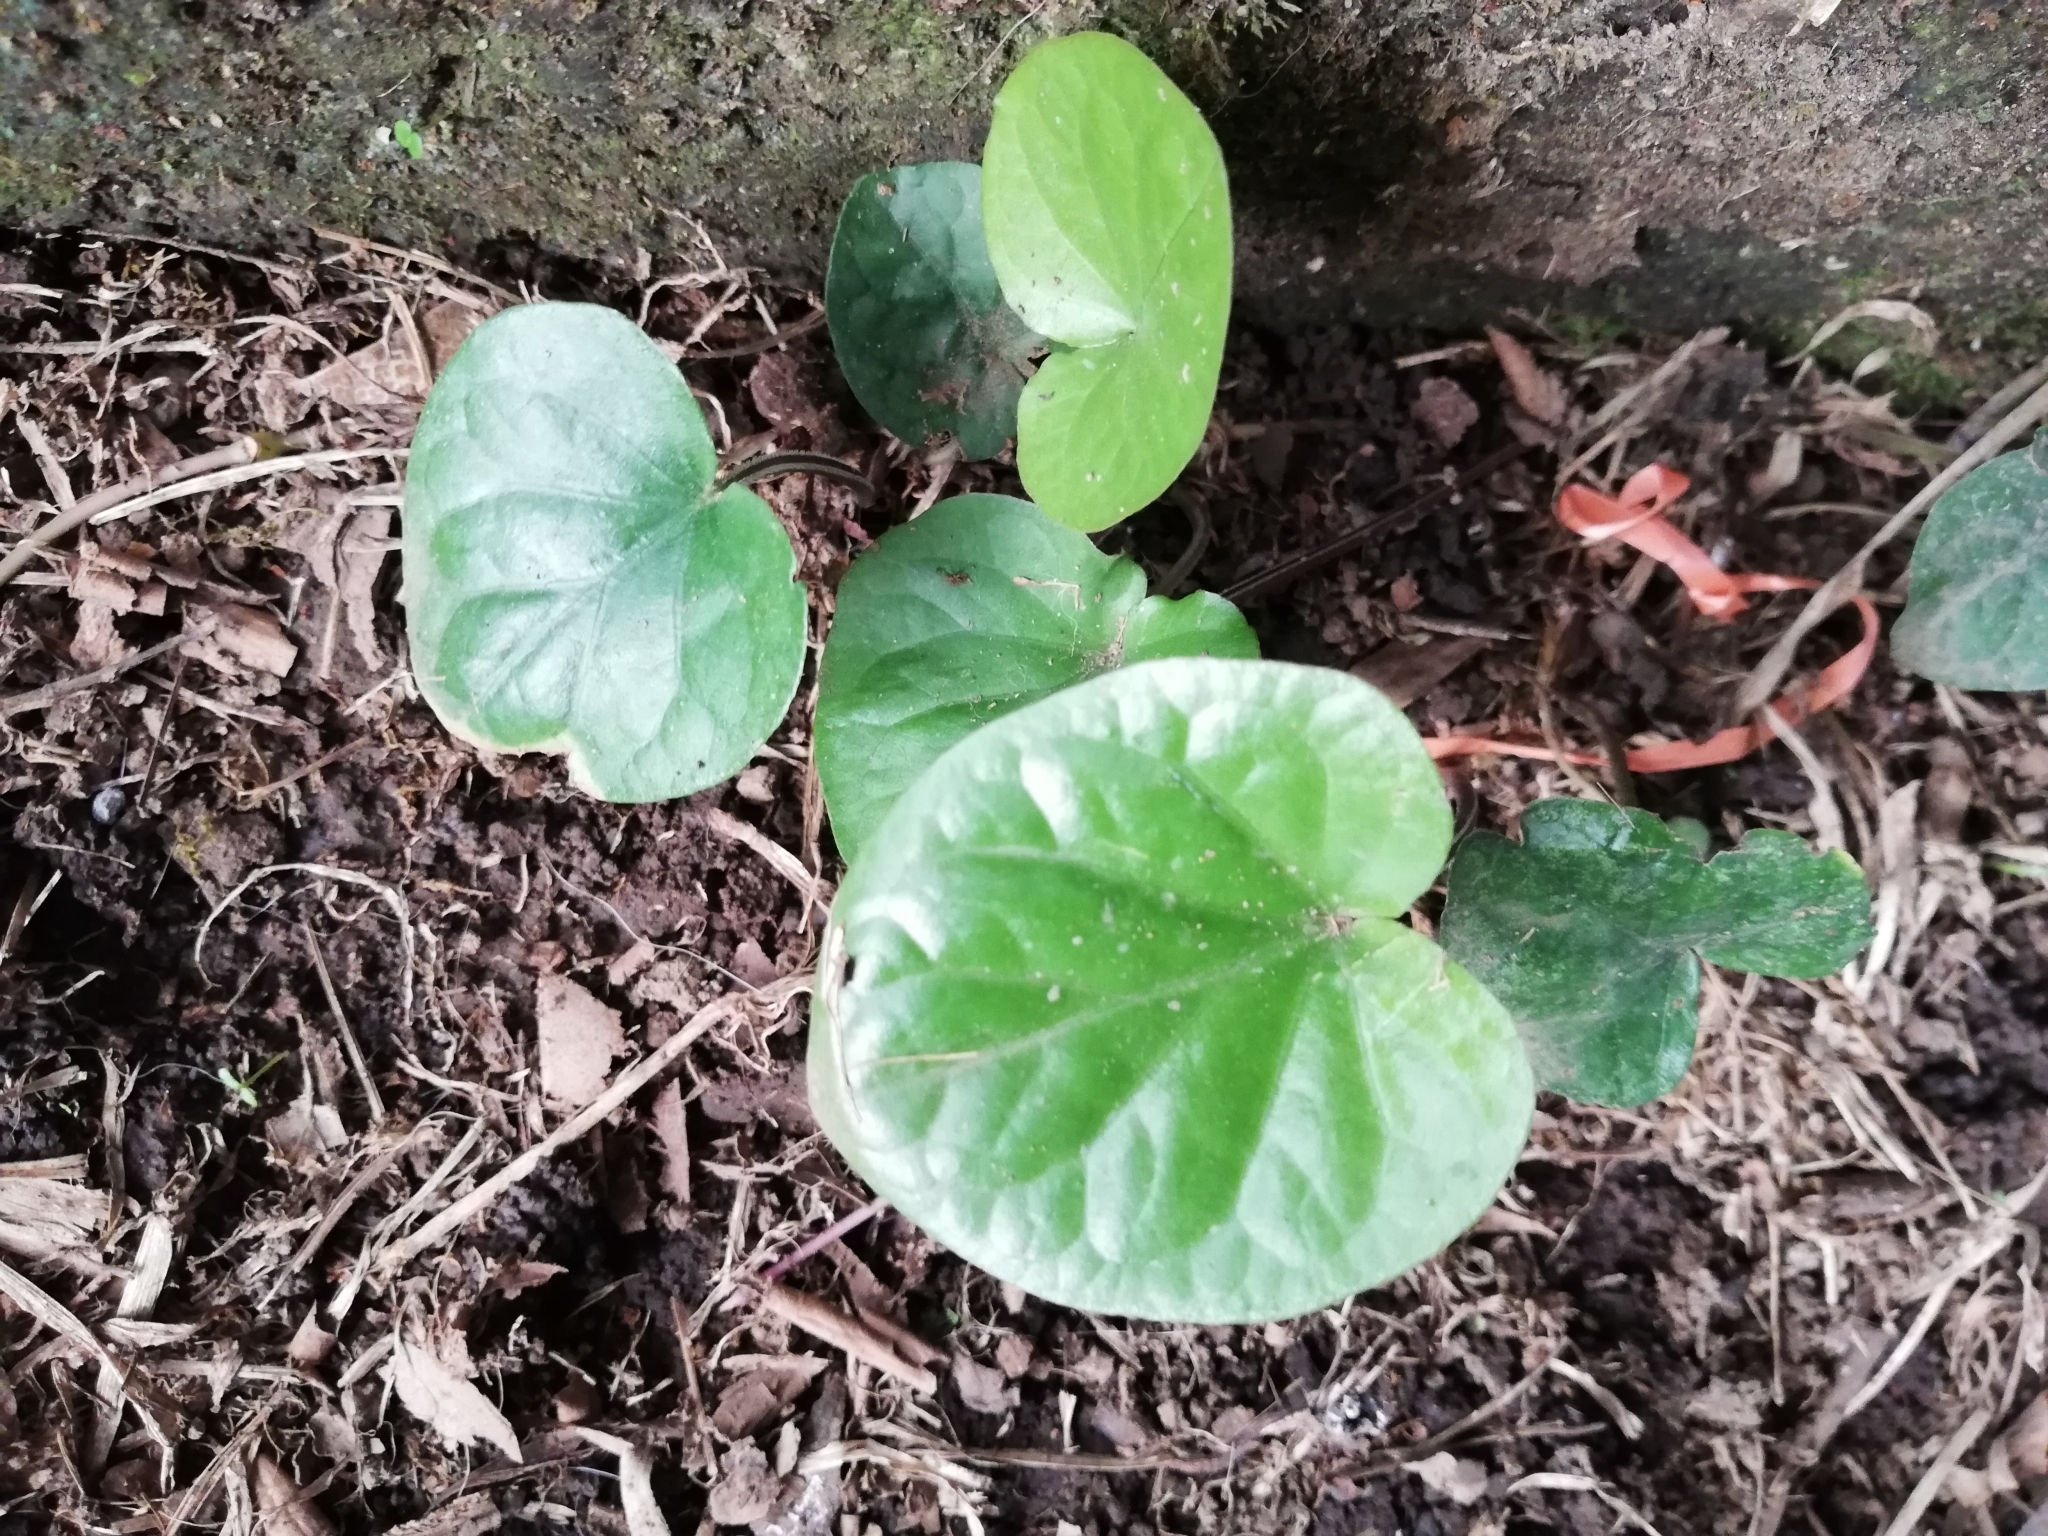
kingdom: Plantae
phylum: Tracheophyta
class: Magnoliopsida
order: Gentianales
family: Rubiaceae
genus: Geophila
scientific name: Geophila
